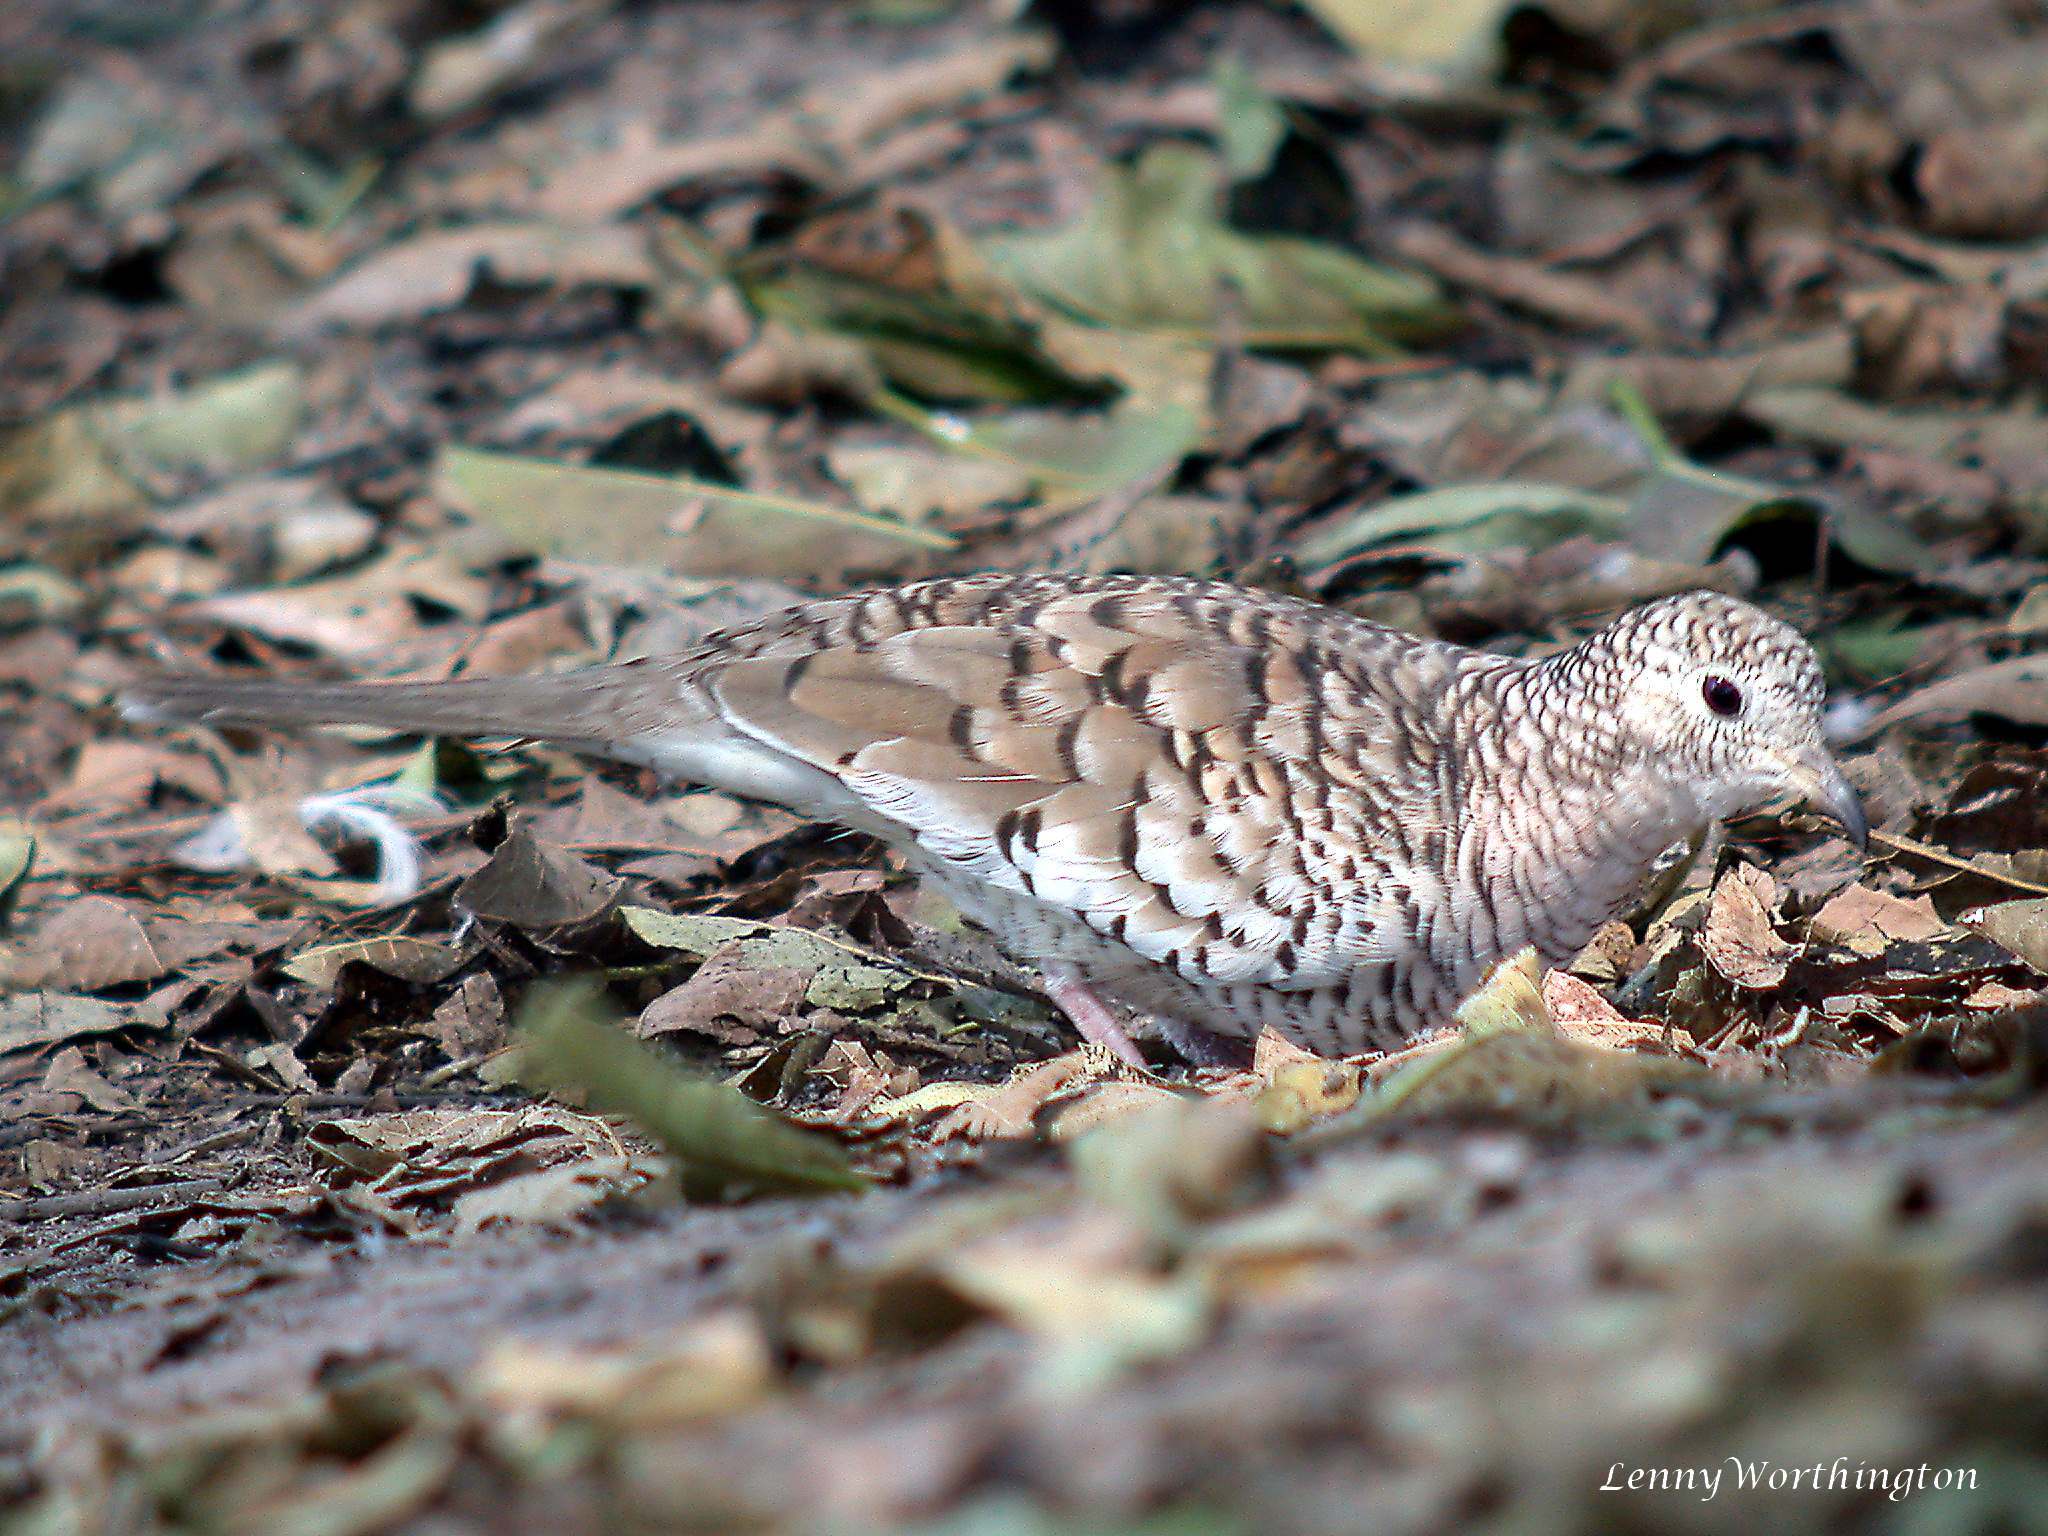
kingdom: Animalia
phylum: Chordata
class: Aves
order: Columbiformes
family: Columbidae
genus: Columbina
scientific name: Columbina squammata
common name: Scaled dove
